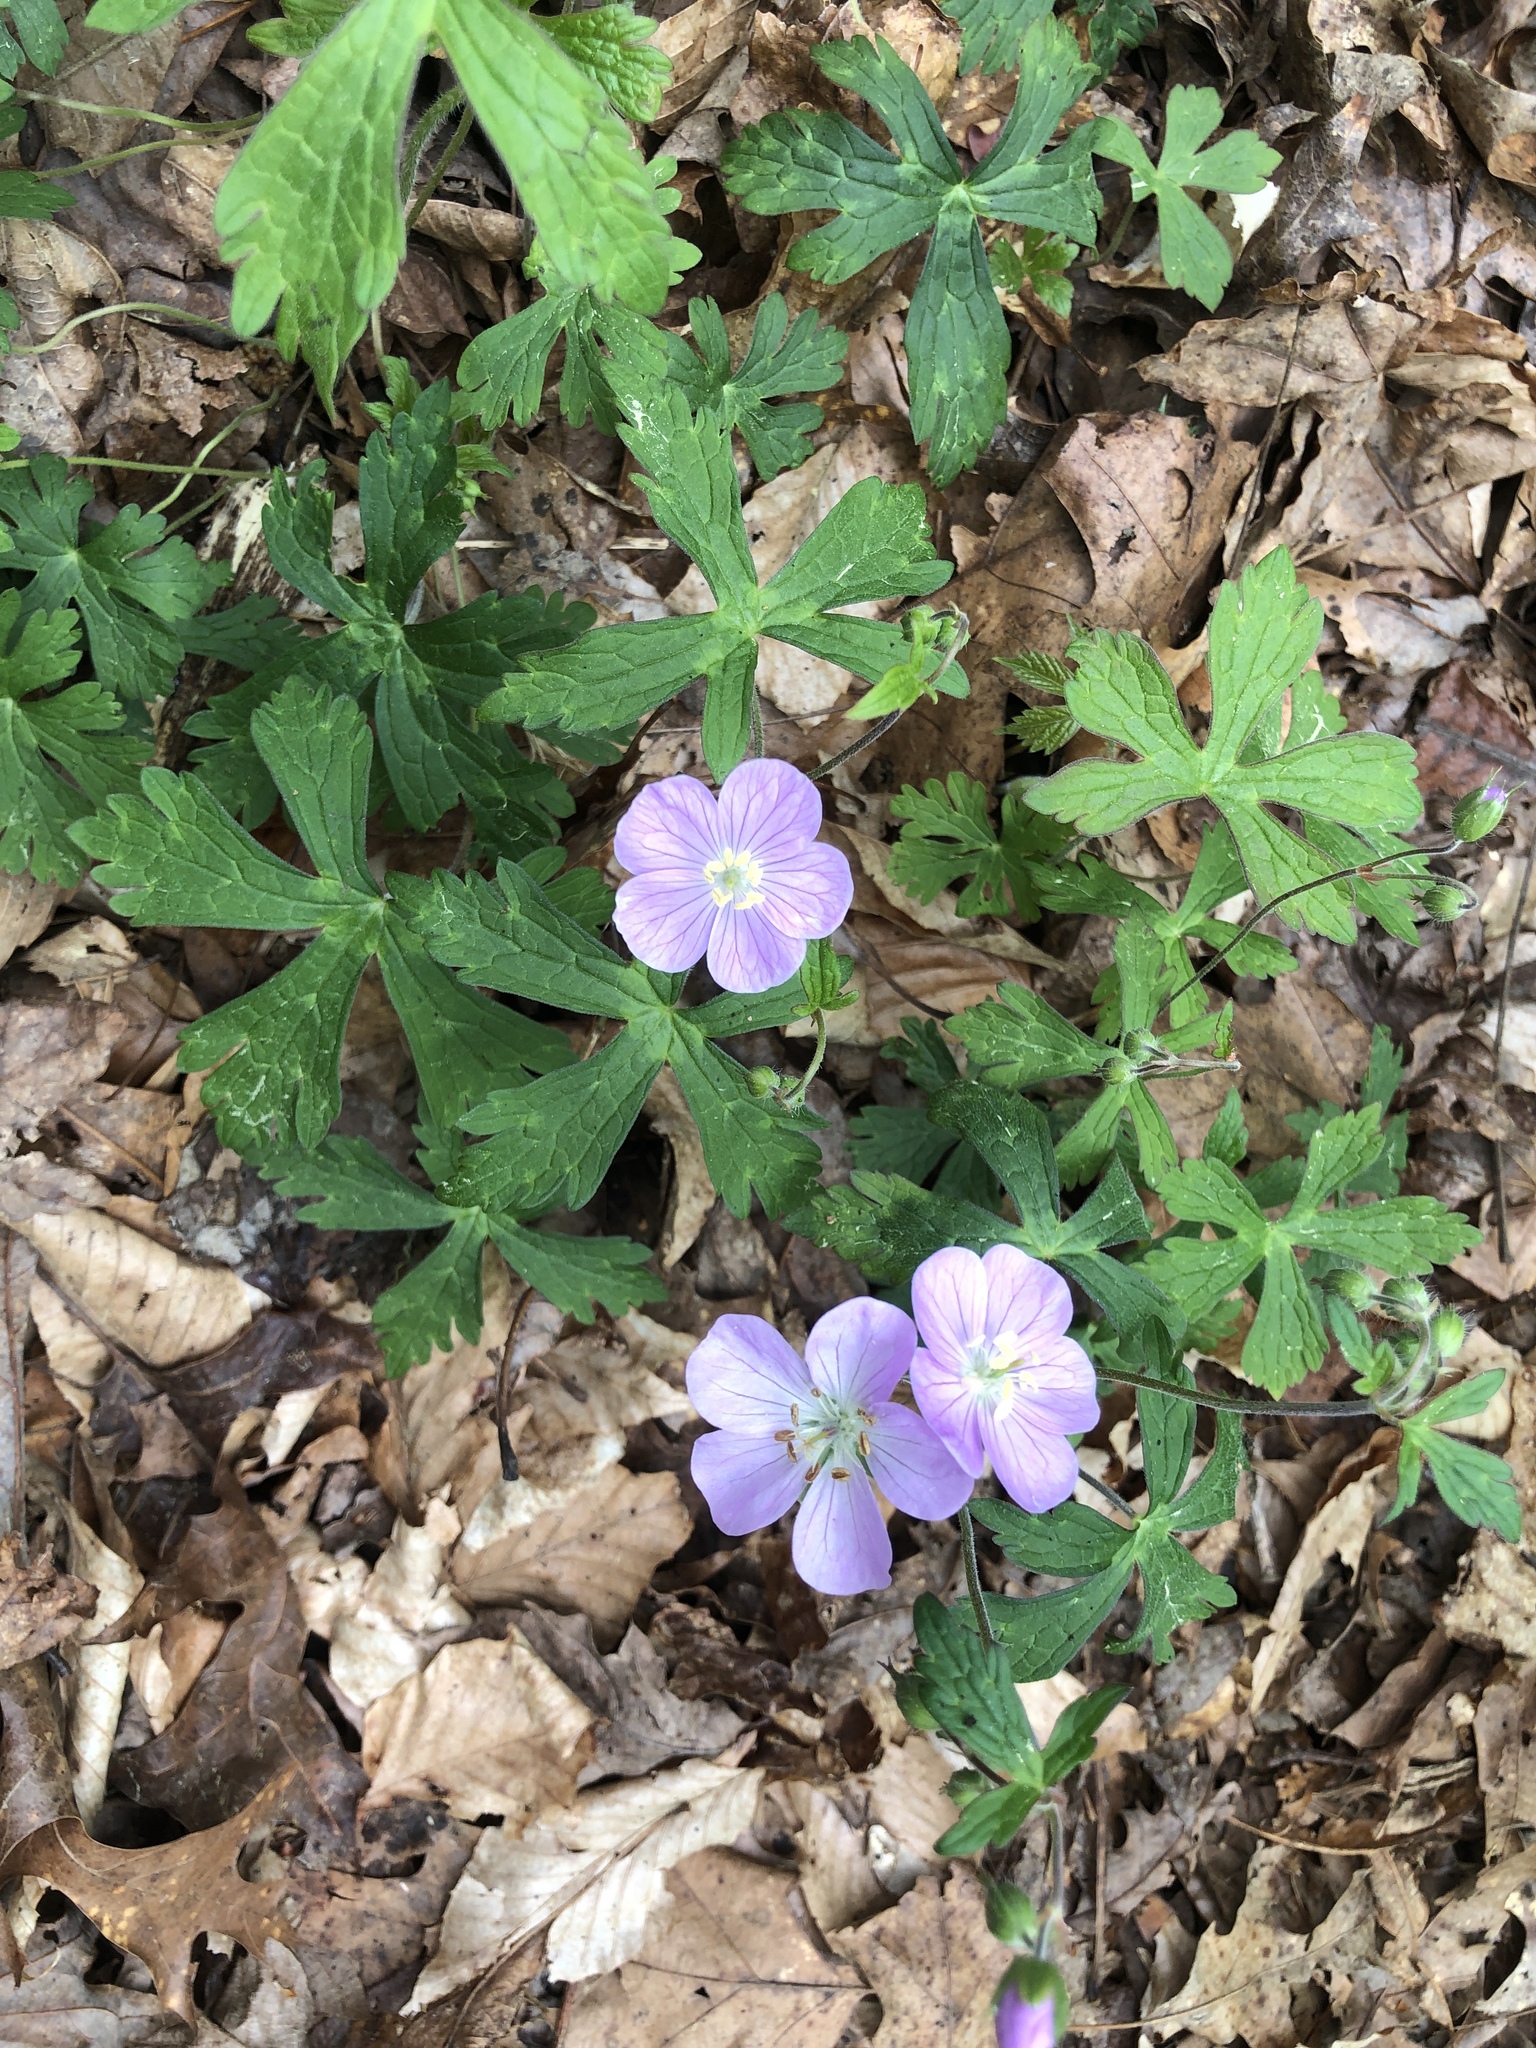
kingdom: Plantae
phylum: Tracheophyta
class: Magnoliopsida
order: Geraniales
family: Geraniaceae
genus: Geranium
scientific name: Geranium maculatum
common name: Spotted geranium
